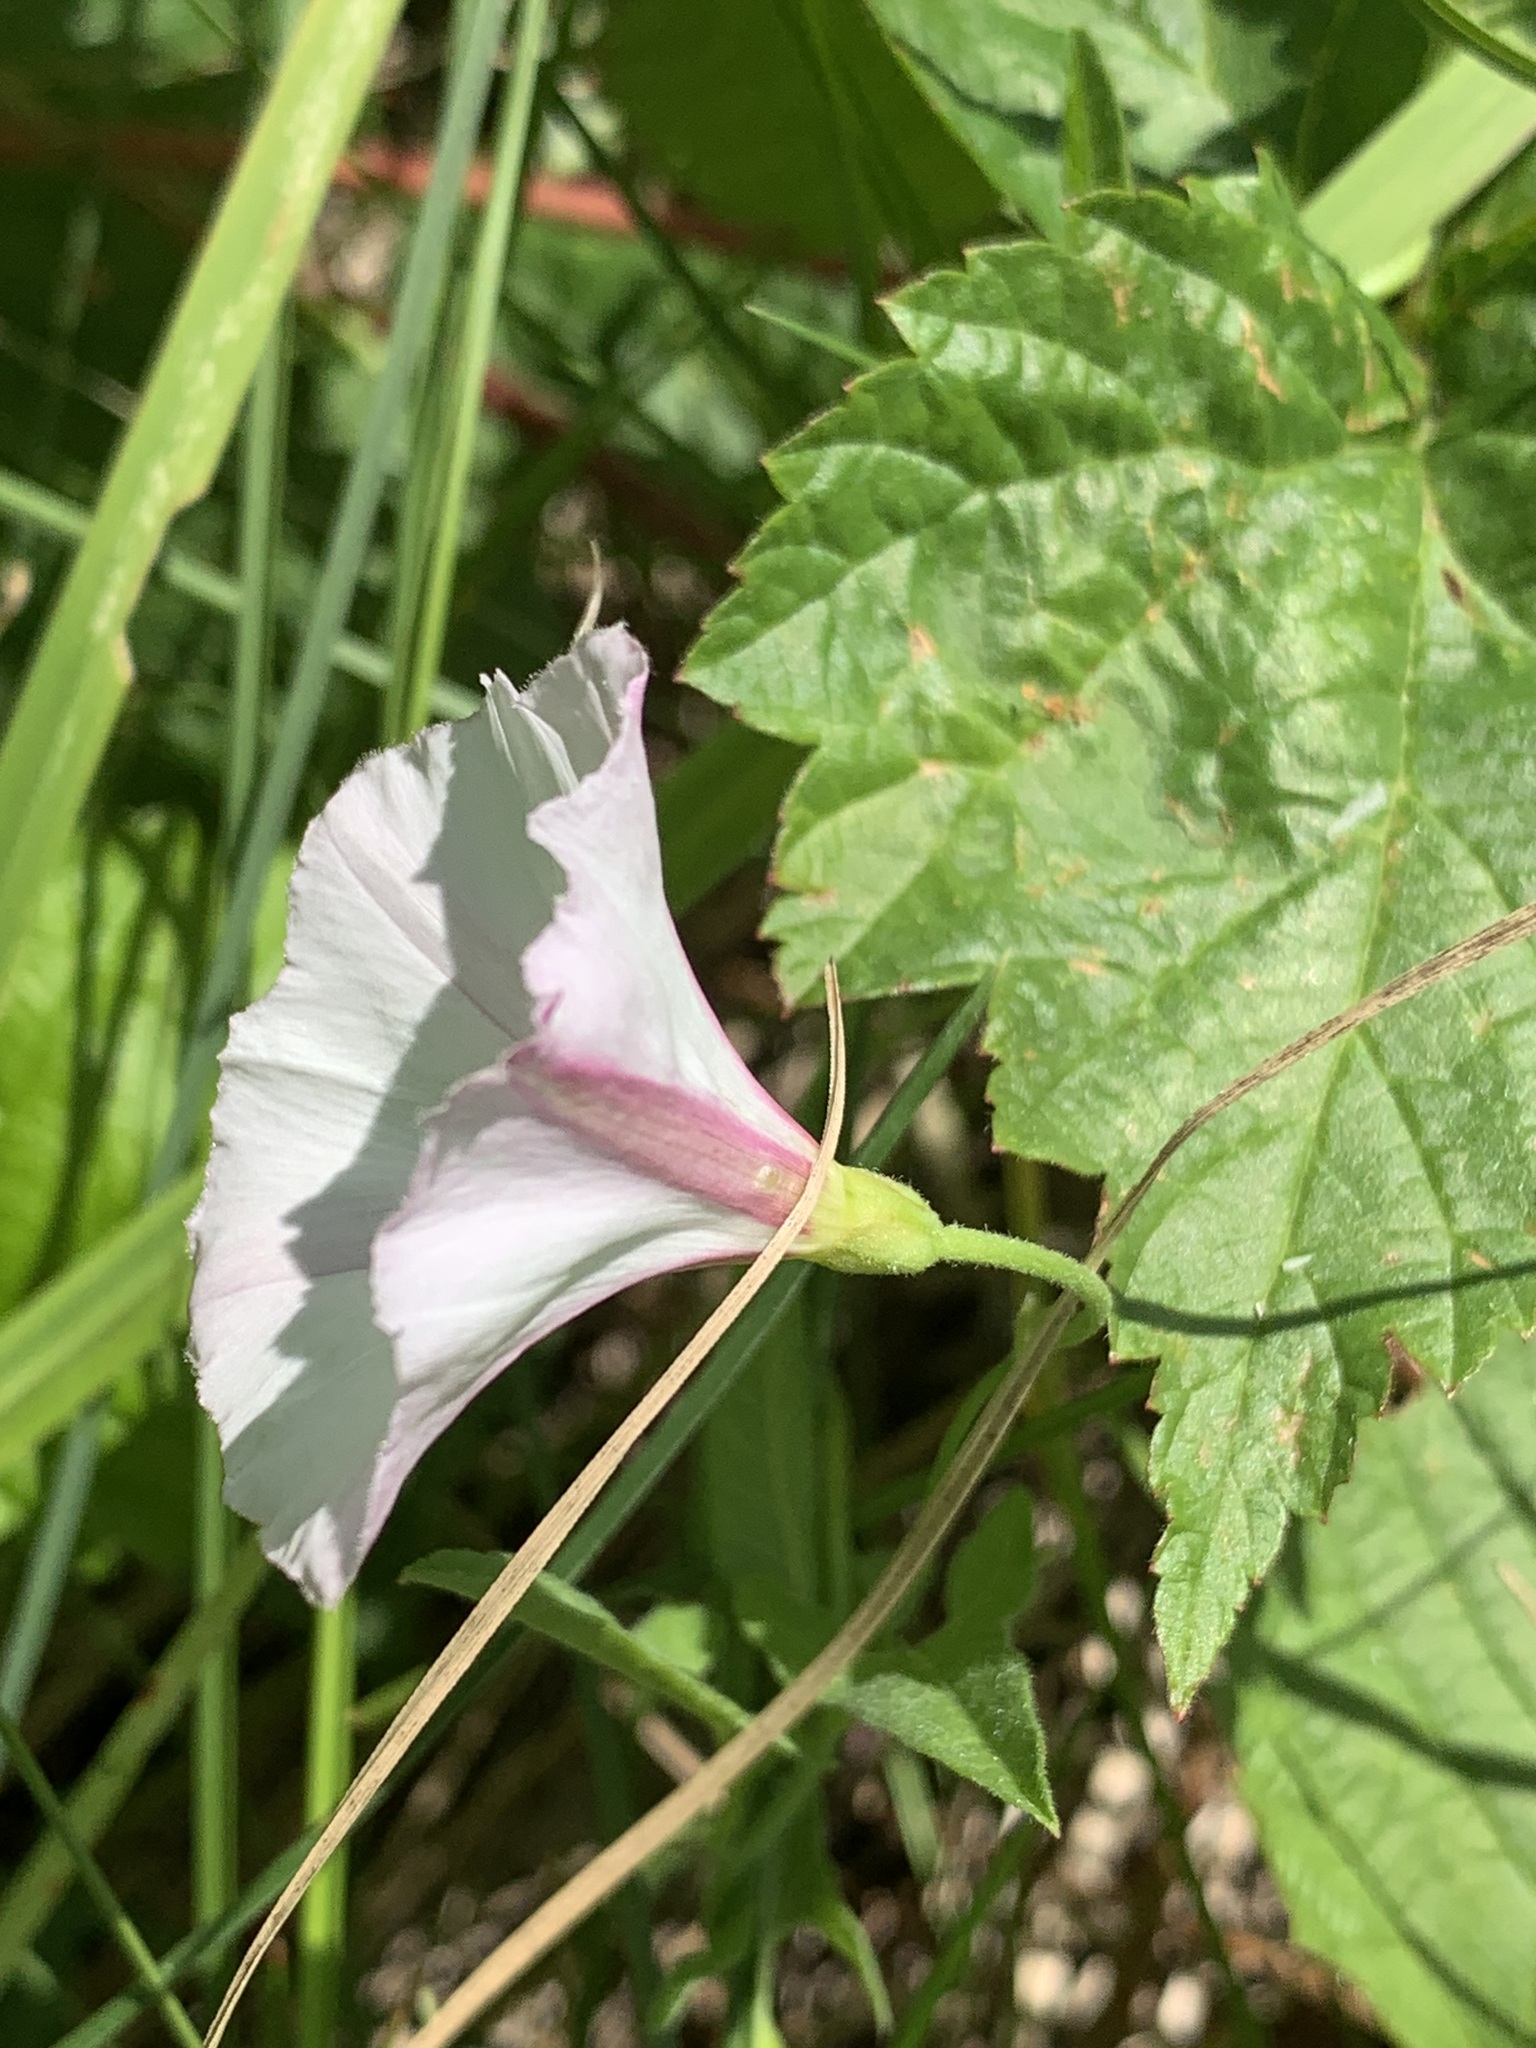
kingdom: Plantae
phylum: Tracheophyta
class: Magnoliopsida
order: Solanales
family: Convolvulaceae
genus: Convolvulus
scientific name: Convolvulus arvensis
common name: Field bindweed
